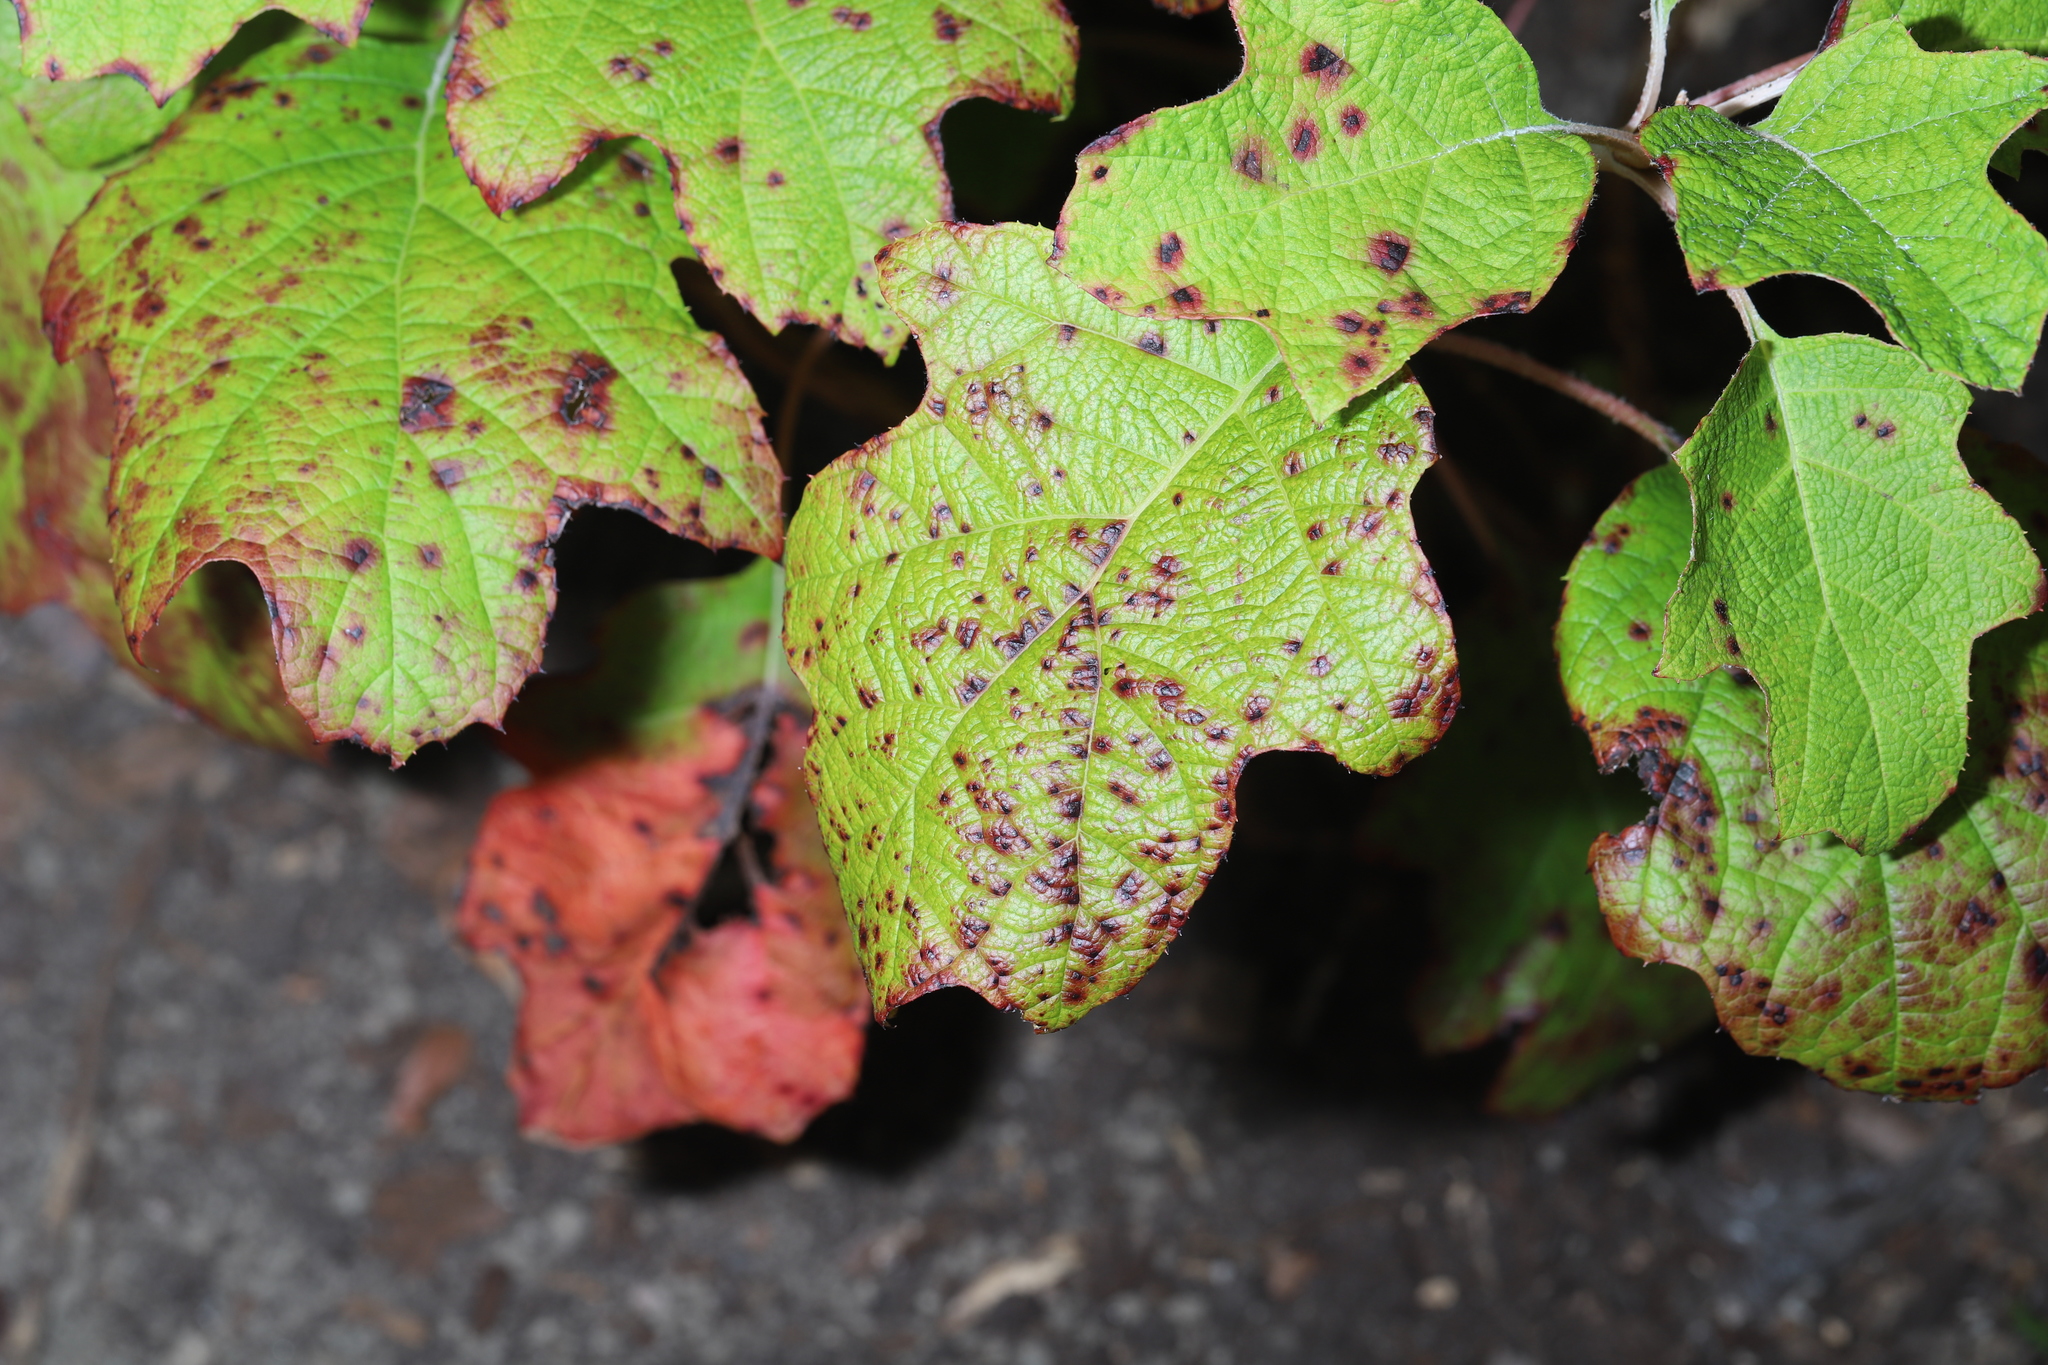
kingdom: Fungi
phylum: Ascomycota
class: Dothideomycetes
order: Mycosphaerellales
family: Mycosphaerellaceae
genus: Cercospora
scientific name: Cercospora hydrangeae
